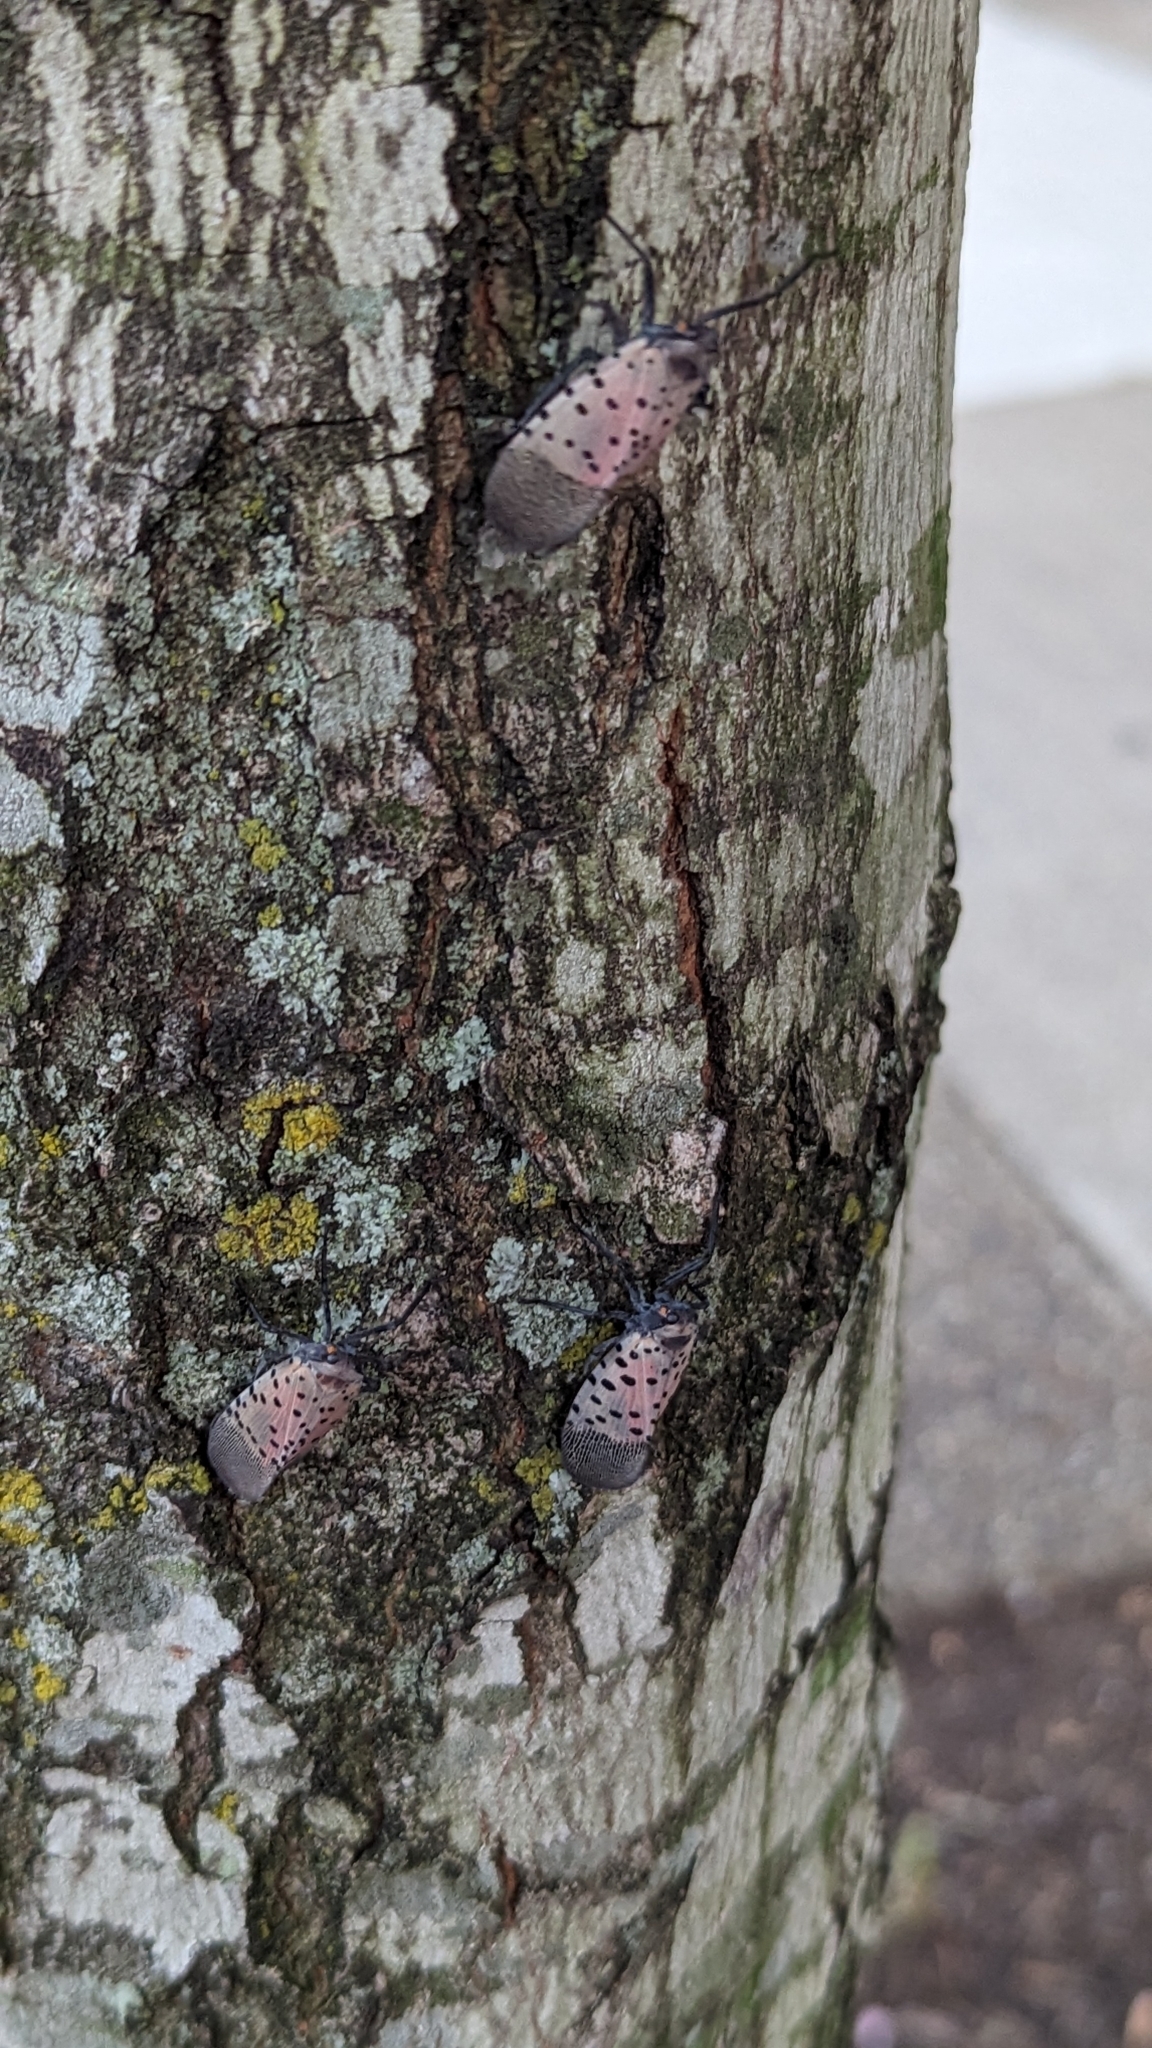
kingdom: Animalia
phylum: Arthropoda
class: Insecta
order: Hemiptera
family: Fulgoridae
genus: Lycorma
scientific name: Lycorma delicatula
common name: Spotted lanternfly
